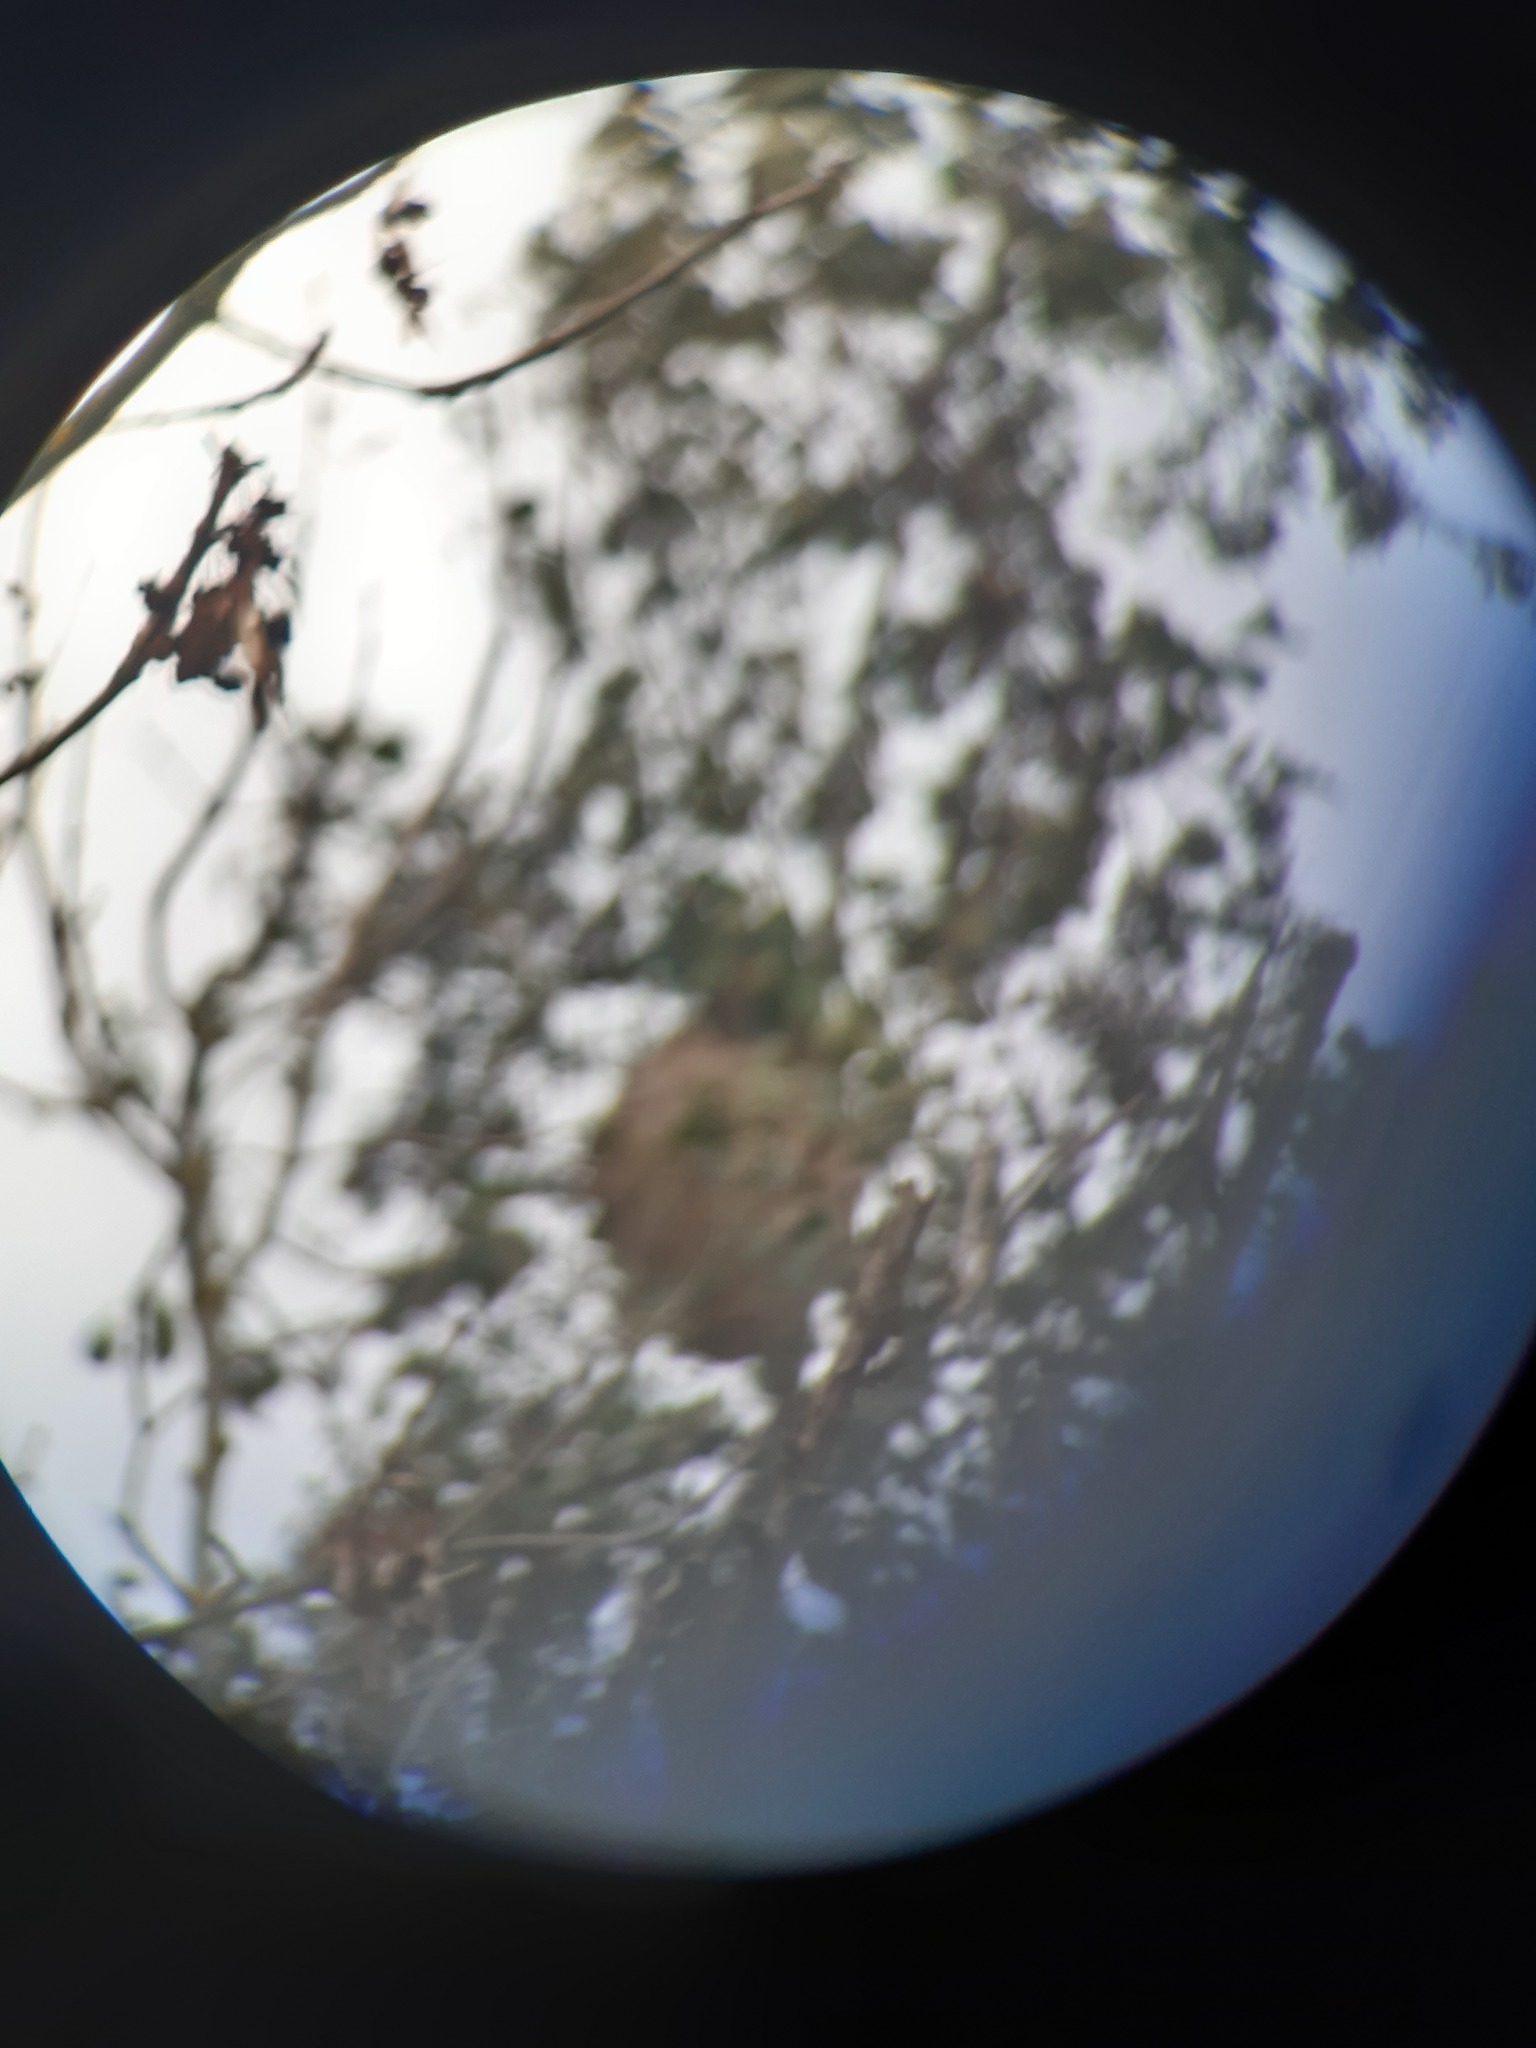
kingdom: Animalia
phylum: Arthropoda
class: Insecta
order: Hymenoptera
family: Vespidae
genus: Vespa
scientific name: Vespa velutina
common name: Asian hornet
